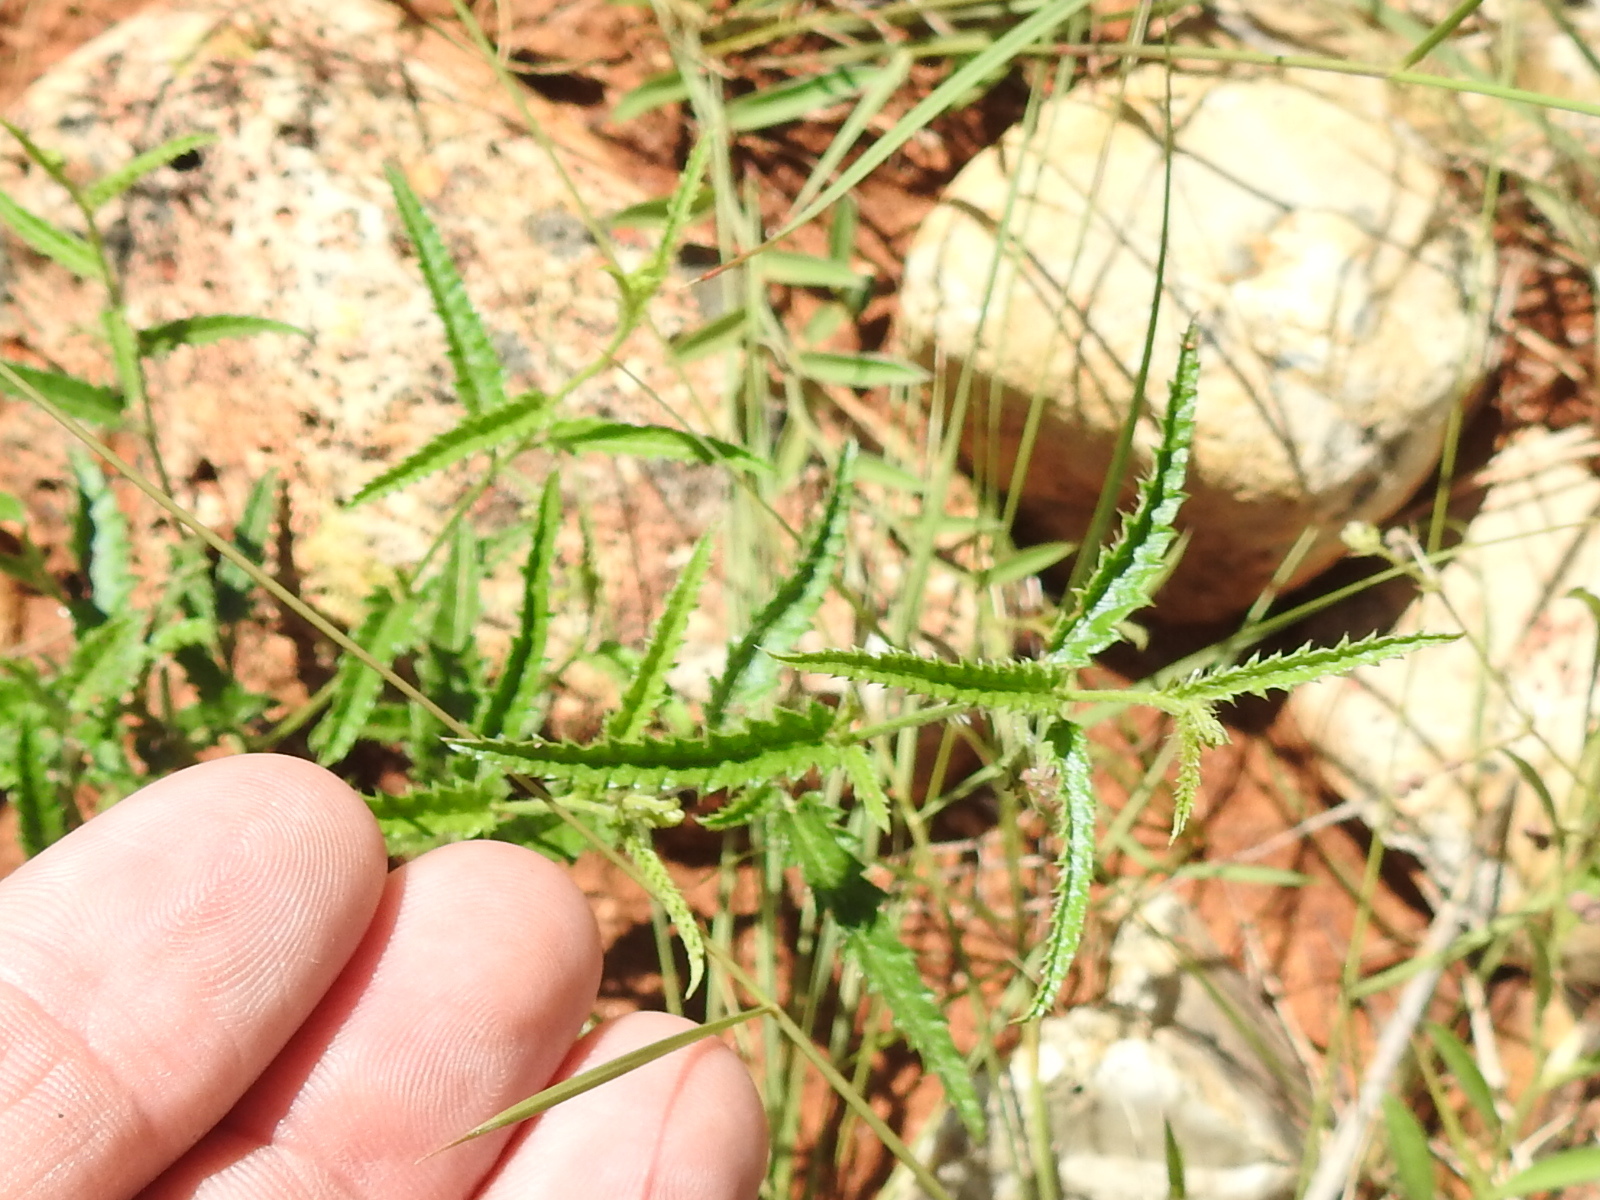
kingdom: Plantae
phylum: Tracheophyta
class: Magnoliopsida
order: Malpighiales
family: Euphorbiaceae
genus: Tragia
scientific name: Tragia ramosa
